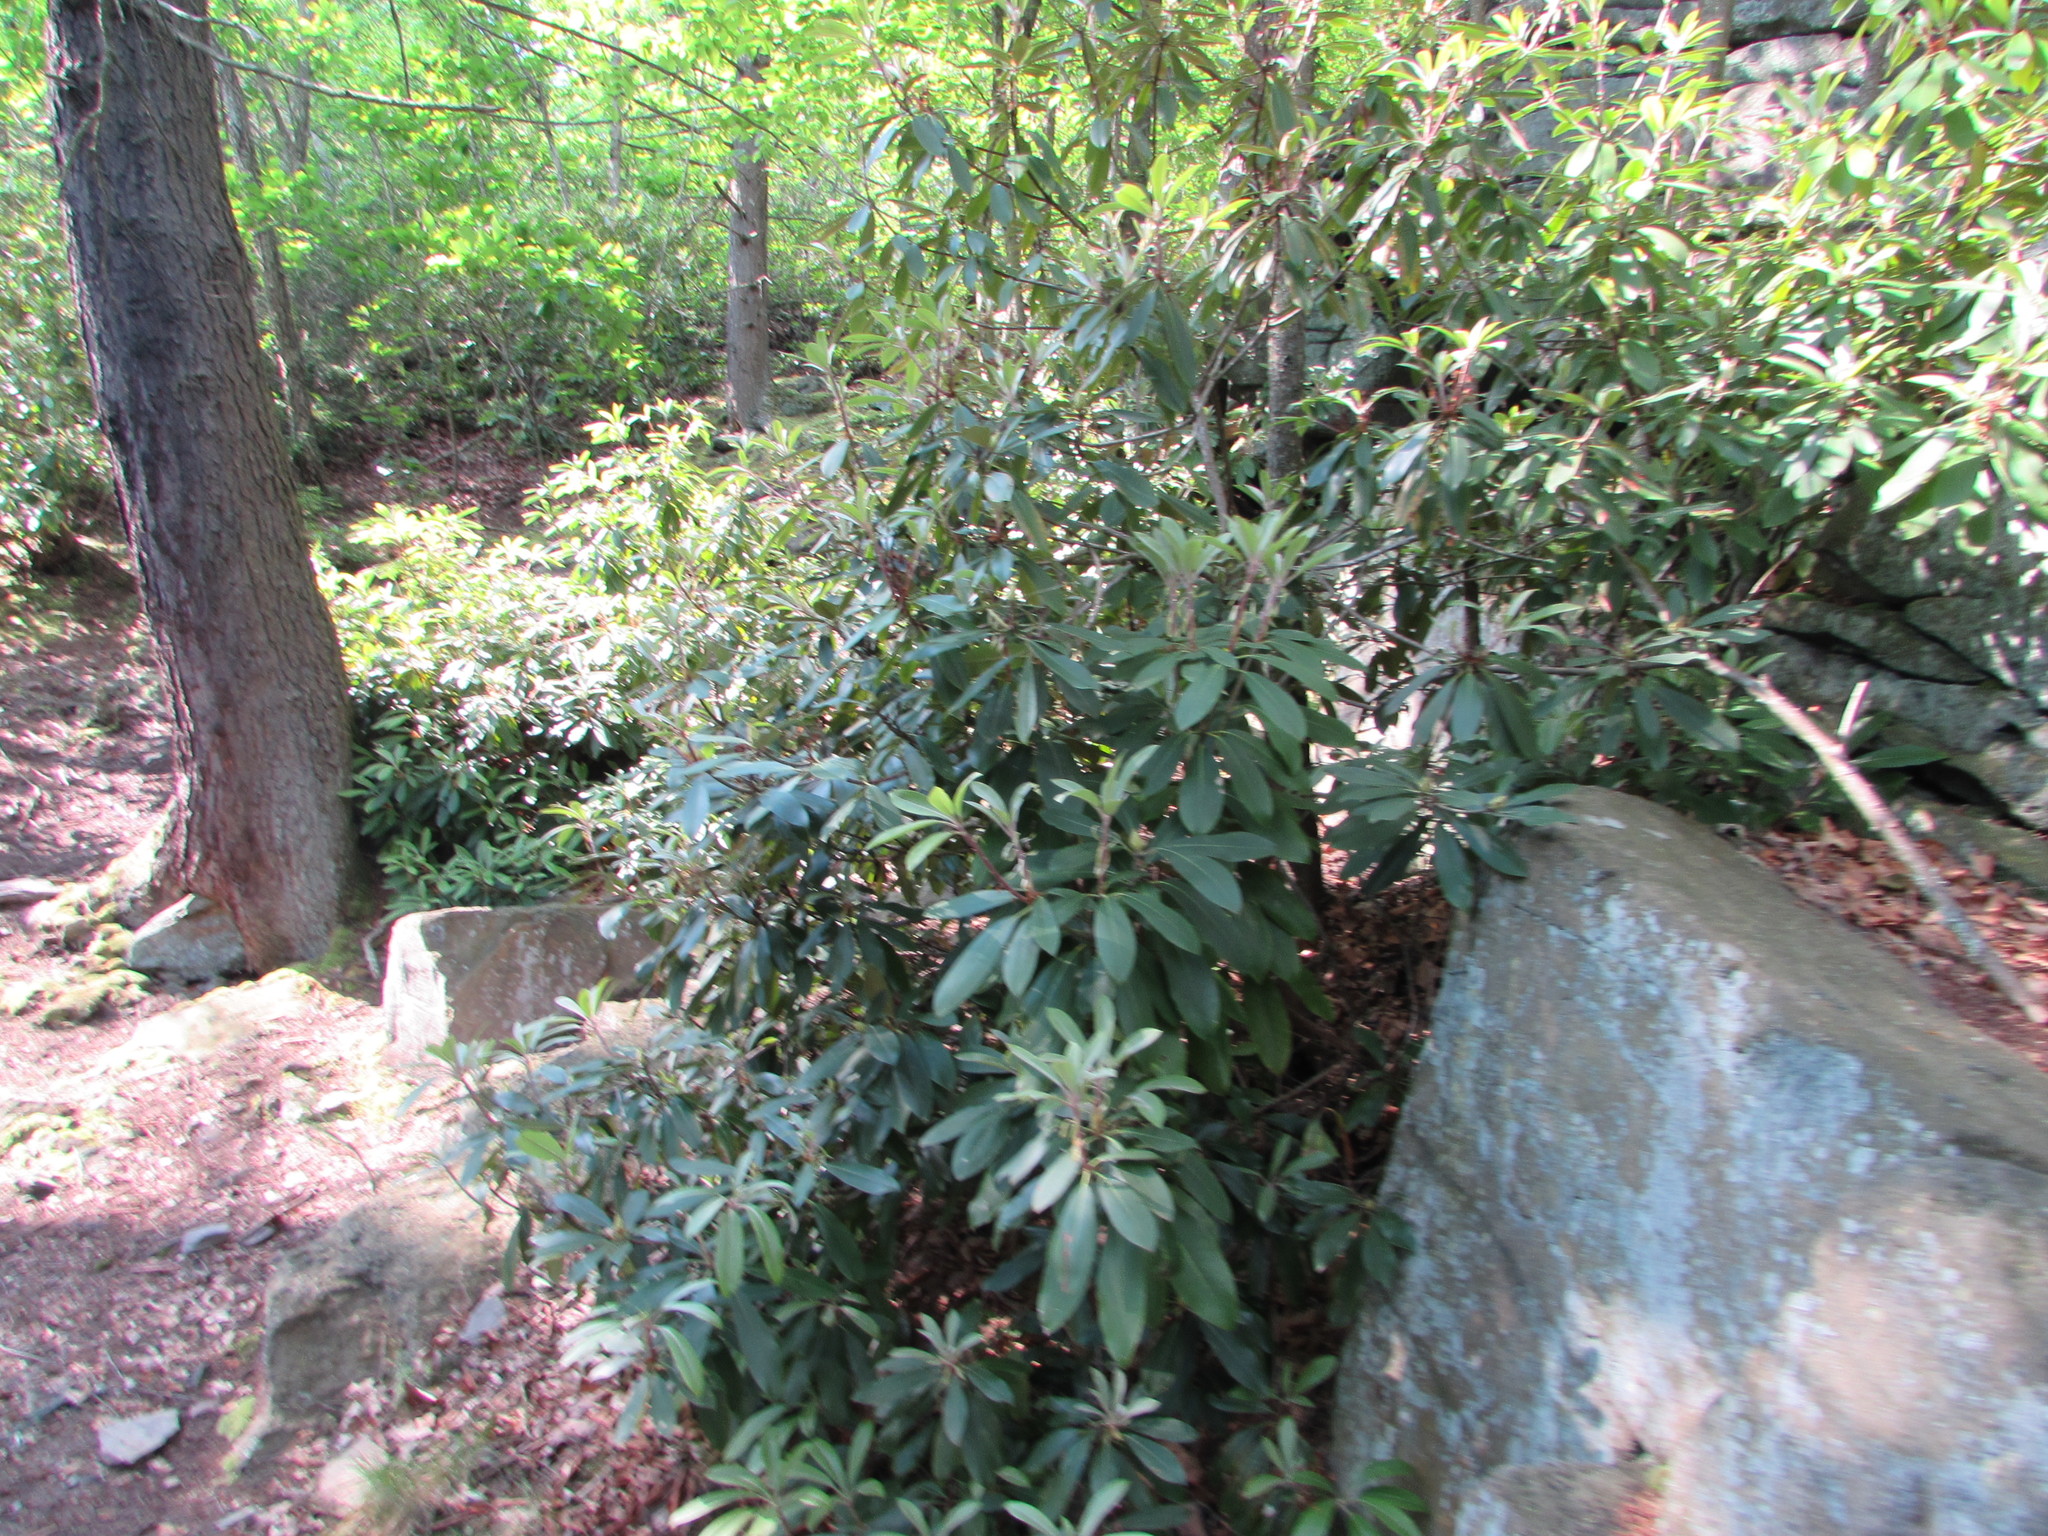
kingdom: Plantae
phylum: Tracheophyta
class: Magnoliopsida
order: Ericales
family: Ericaceae
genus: Rhododendron
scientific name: Rhododendron maximum
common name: Great rhododendron
